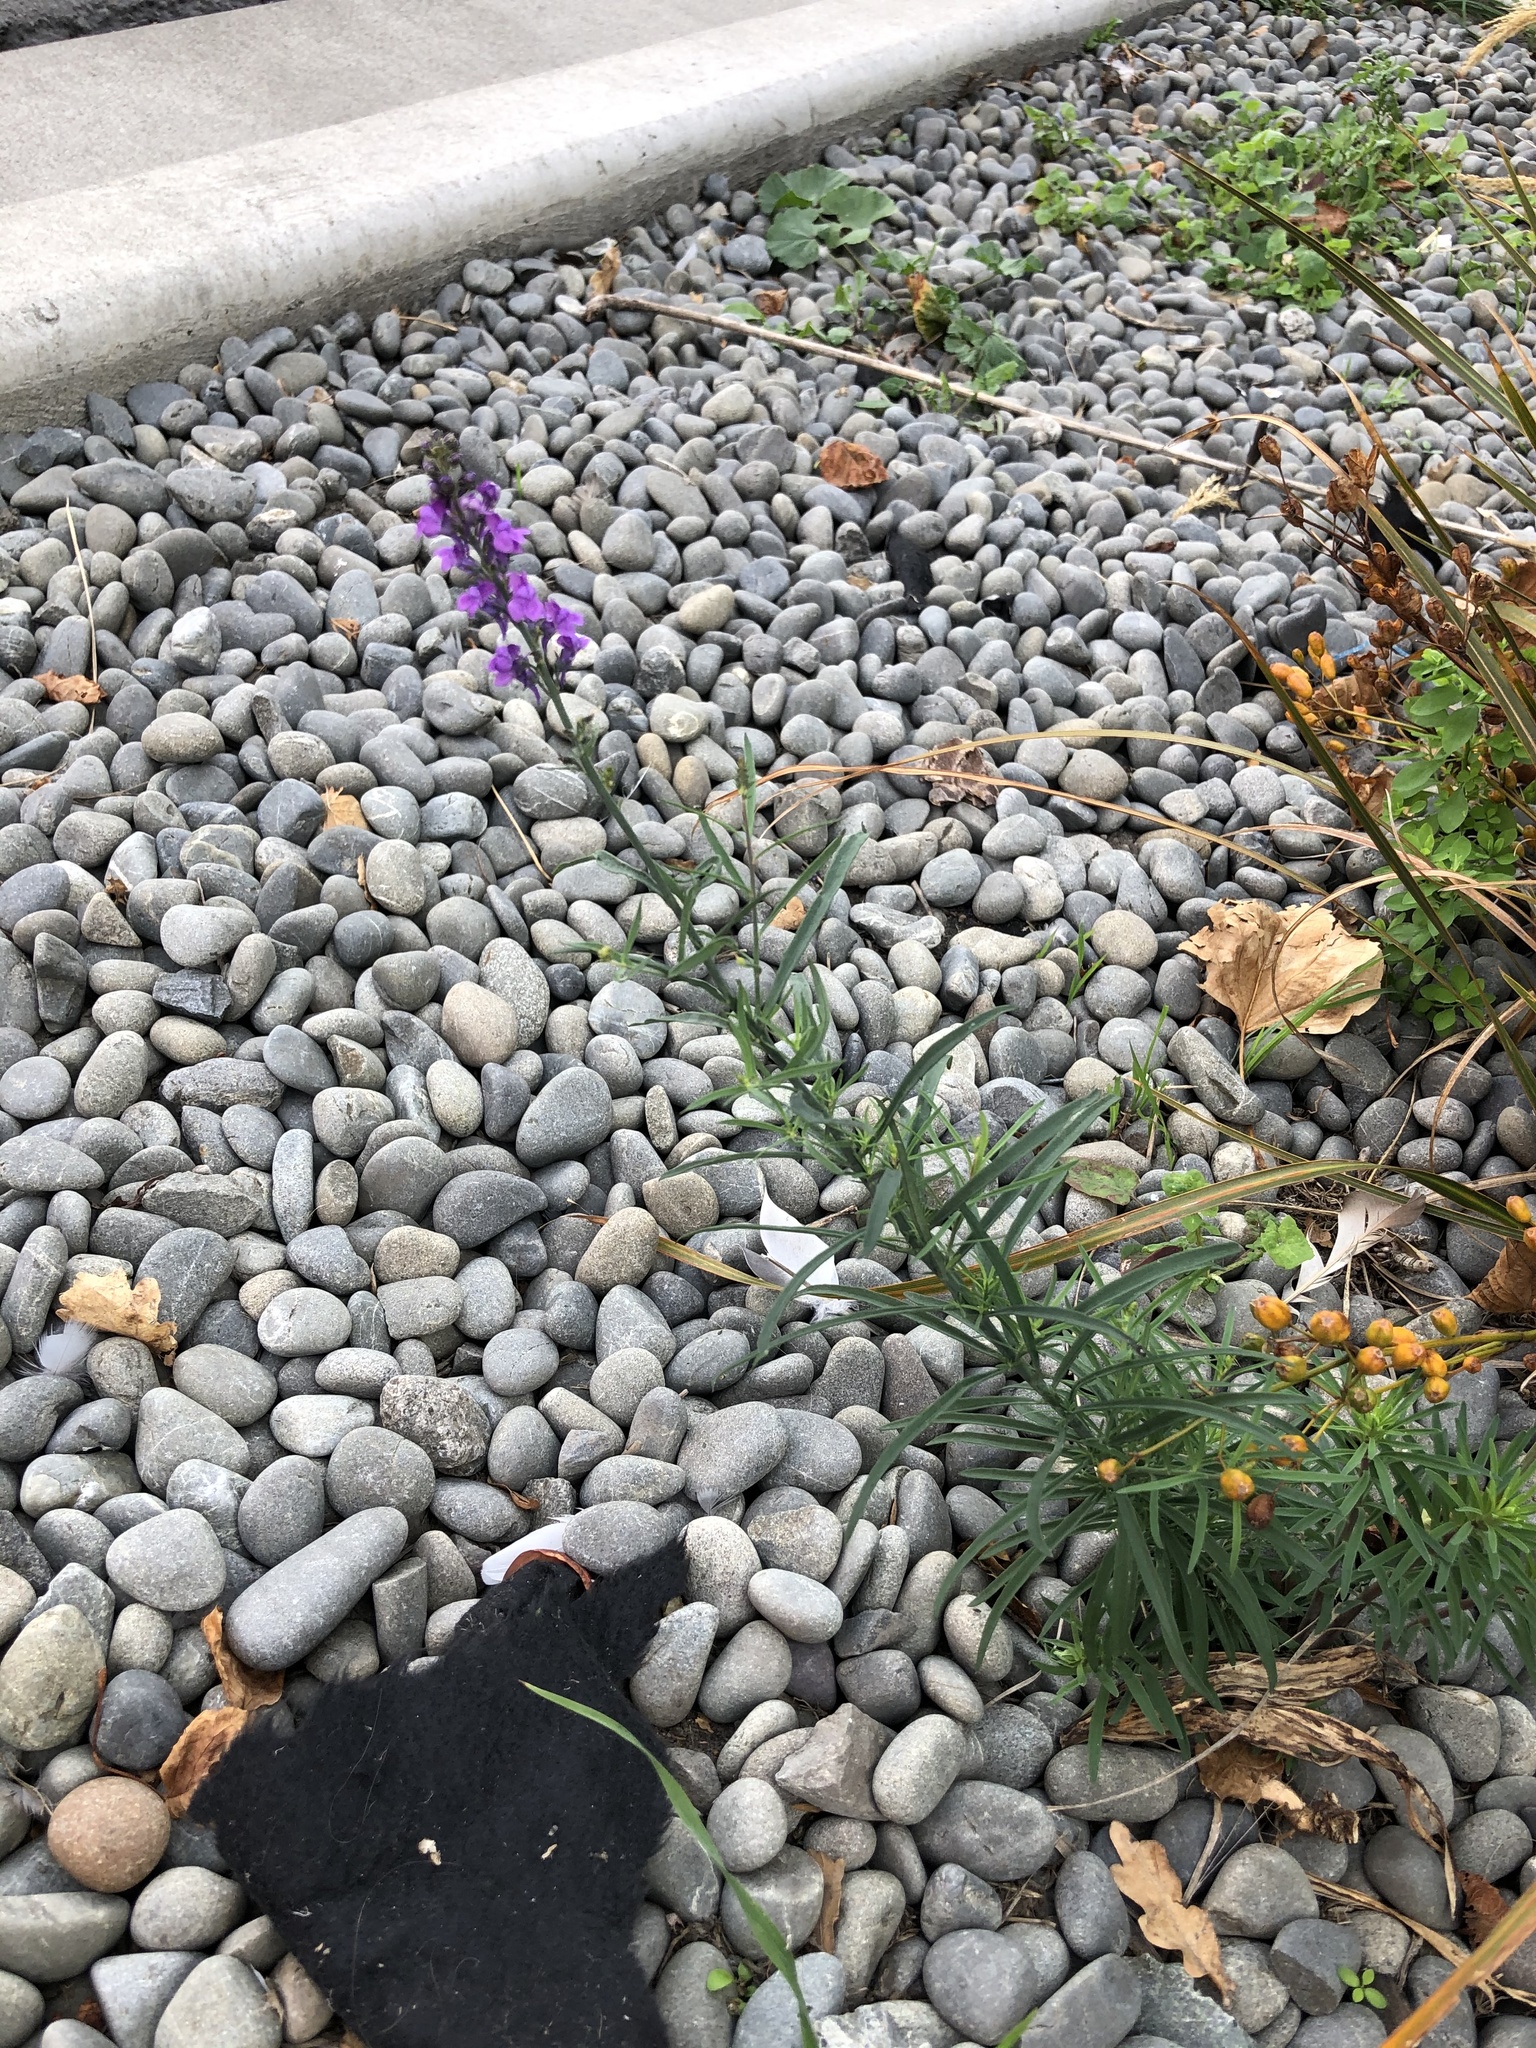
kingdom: Plantae
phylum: Tracheophyta
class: Magnoliopsida
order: Lamiales
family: Plantaginaceae
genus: Linaria
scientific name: Linaria purpurea
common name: Purple toadflax
